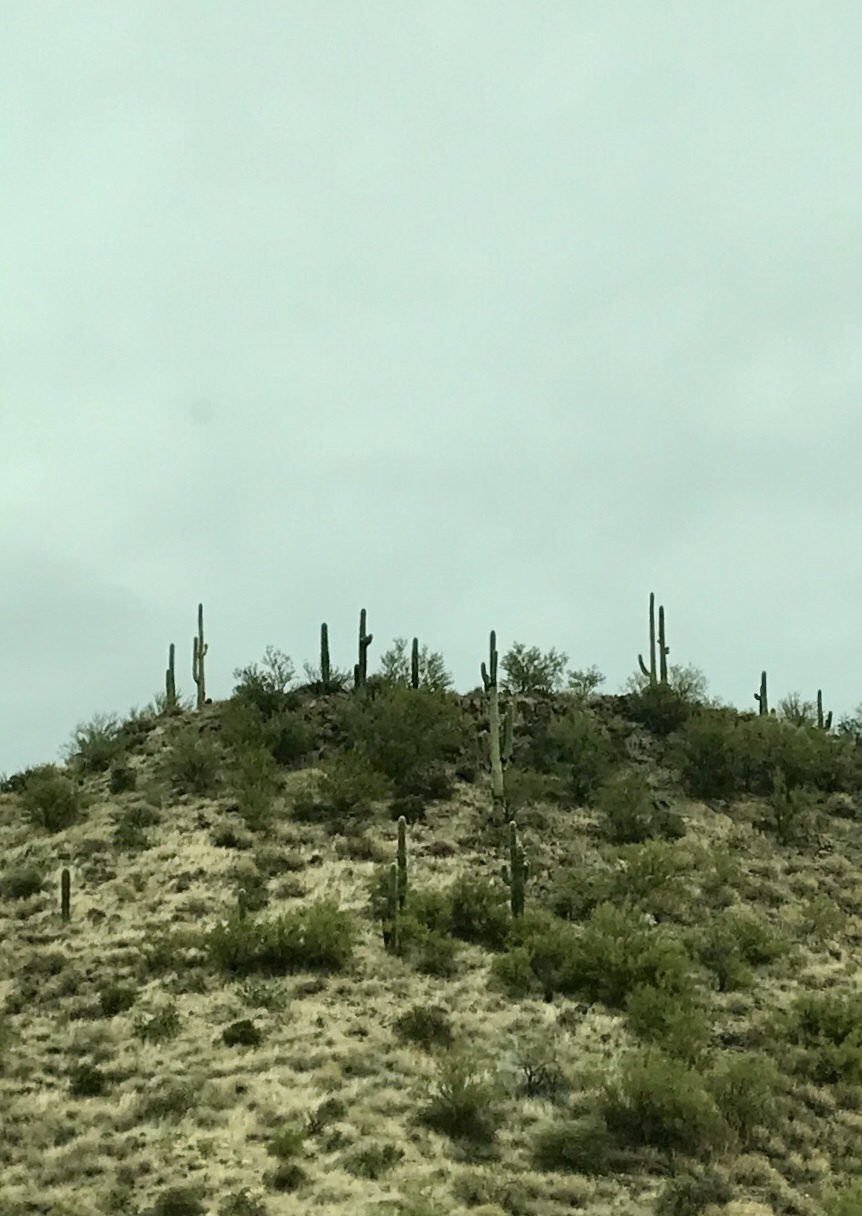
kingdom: Plantae
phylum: Tracheophyta
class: Magnoliopsida
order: Caryophyllales
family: Cactaceae
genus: Carnegiea
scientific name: Carnegiea gigantea
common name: Saguaro
